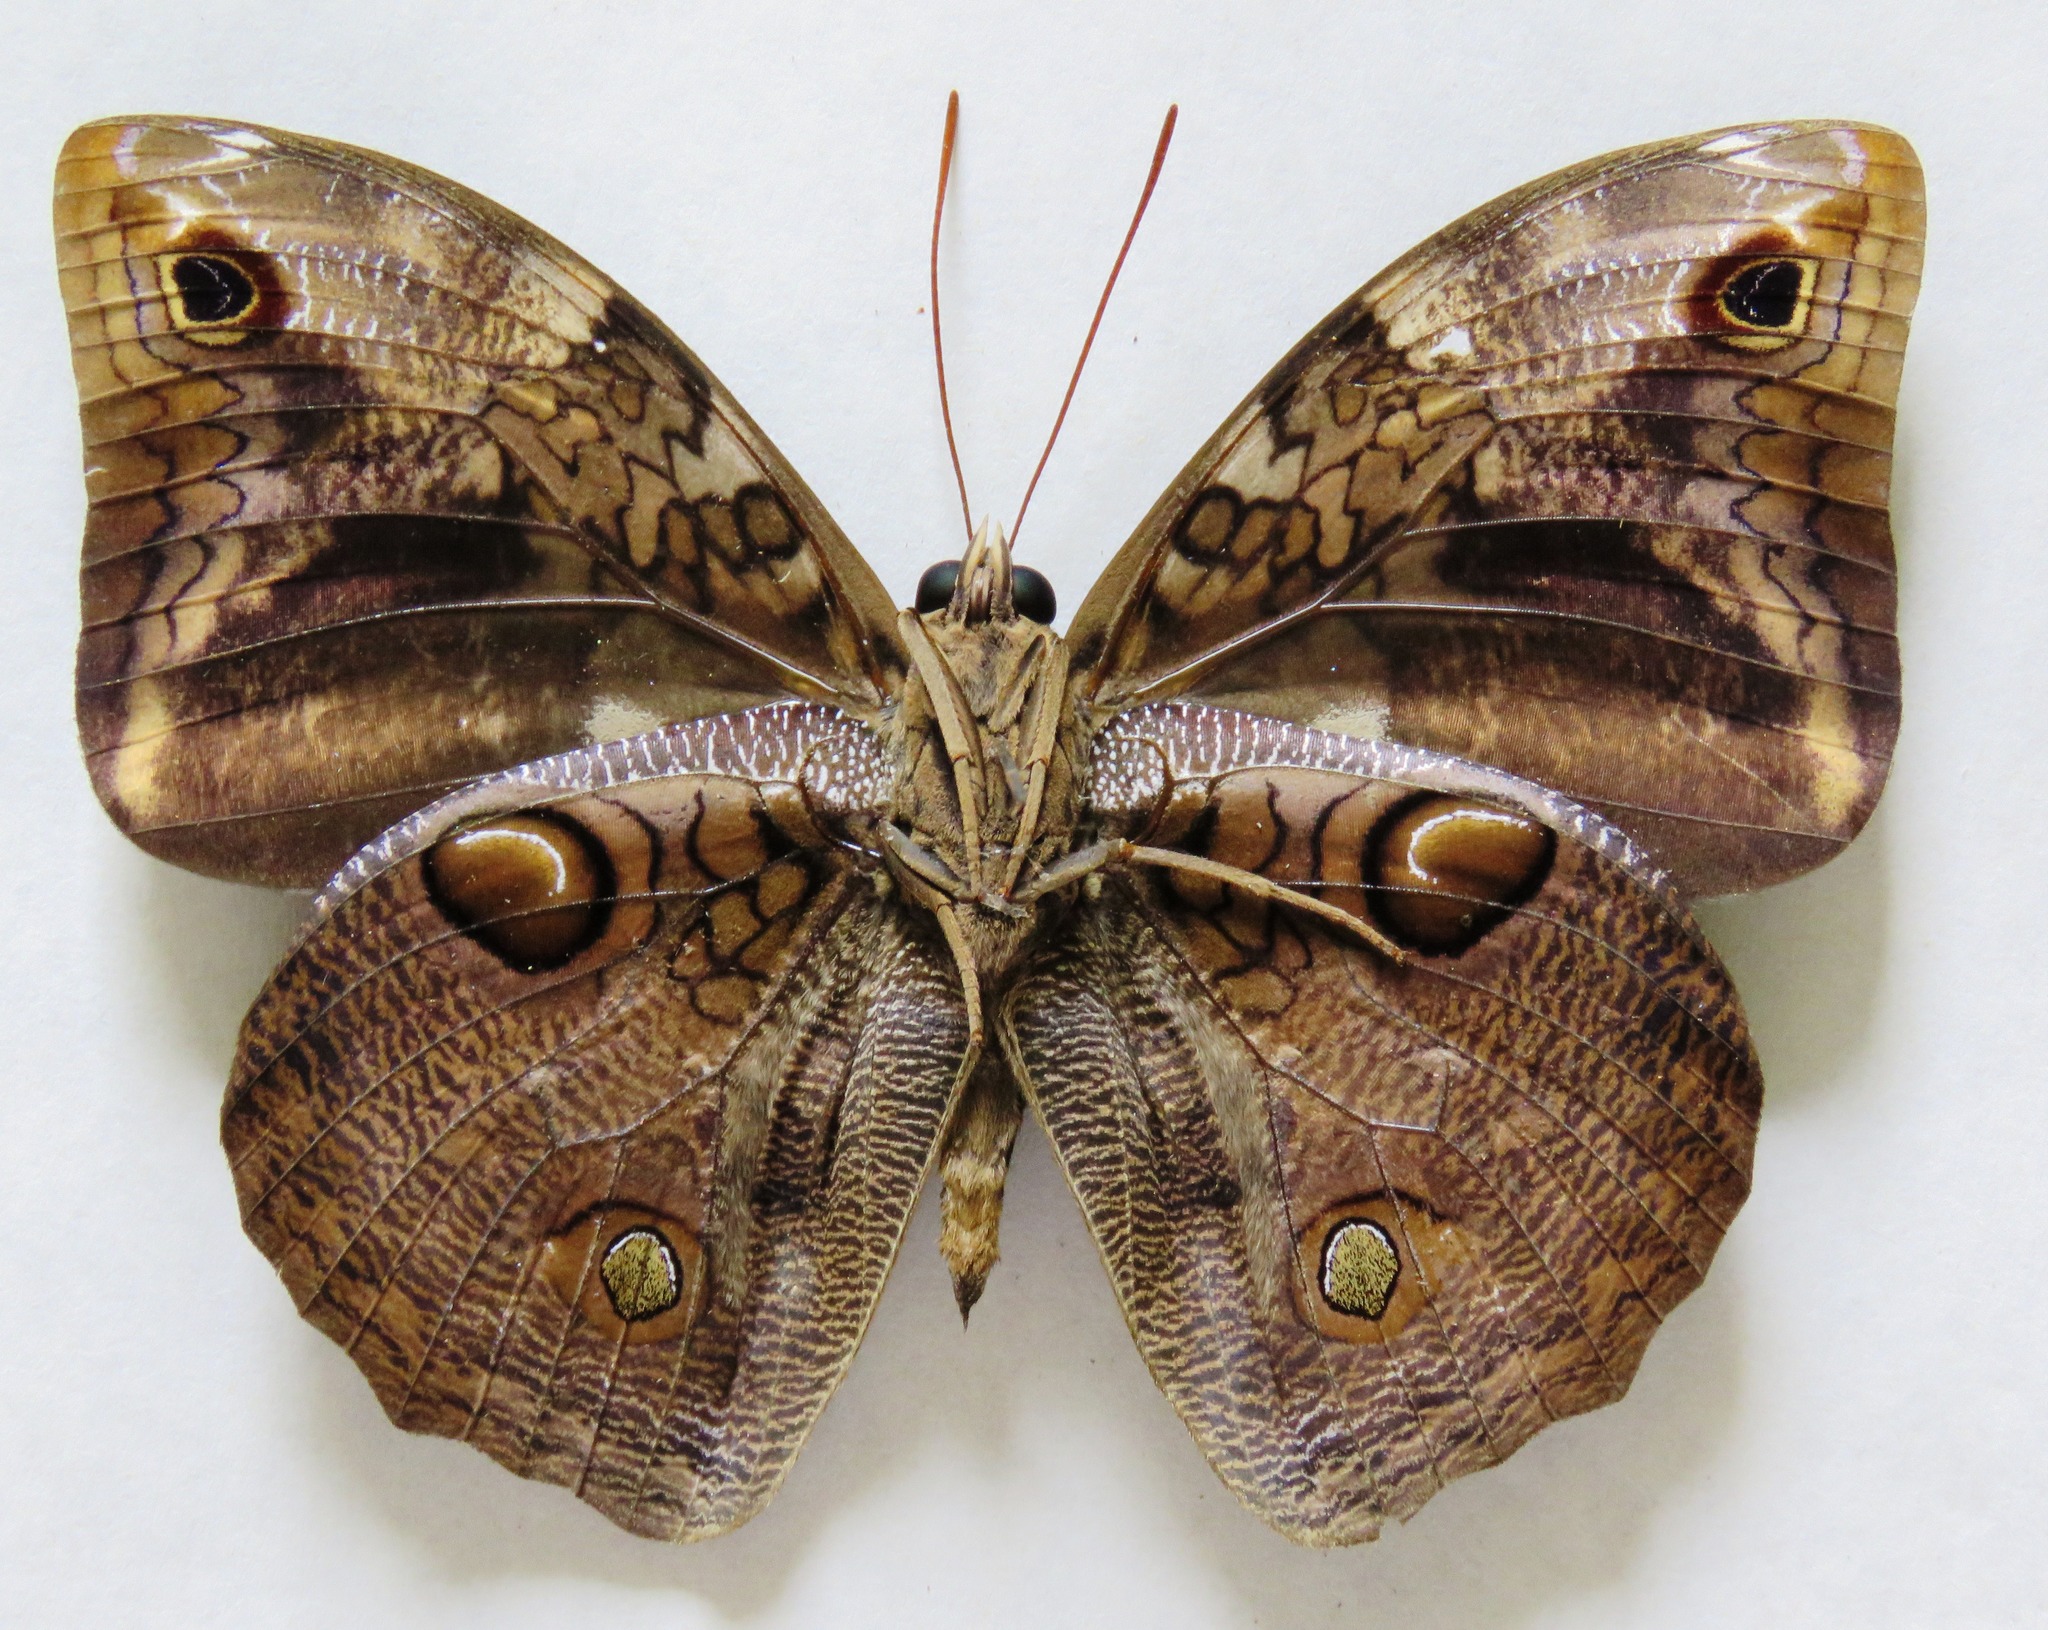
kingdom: Animalia
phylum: Arthropoda
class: Insecta
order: Lepidoptera
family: Nymphalidae
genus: Opsiphanes
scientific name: Opsiphanes cassiae
